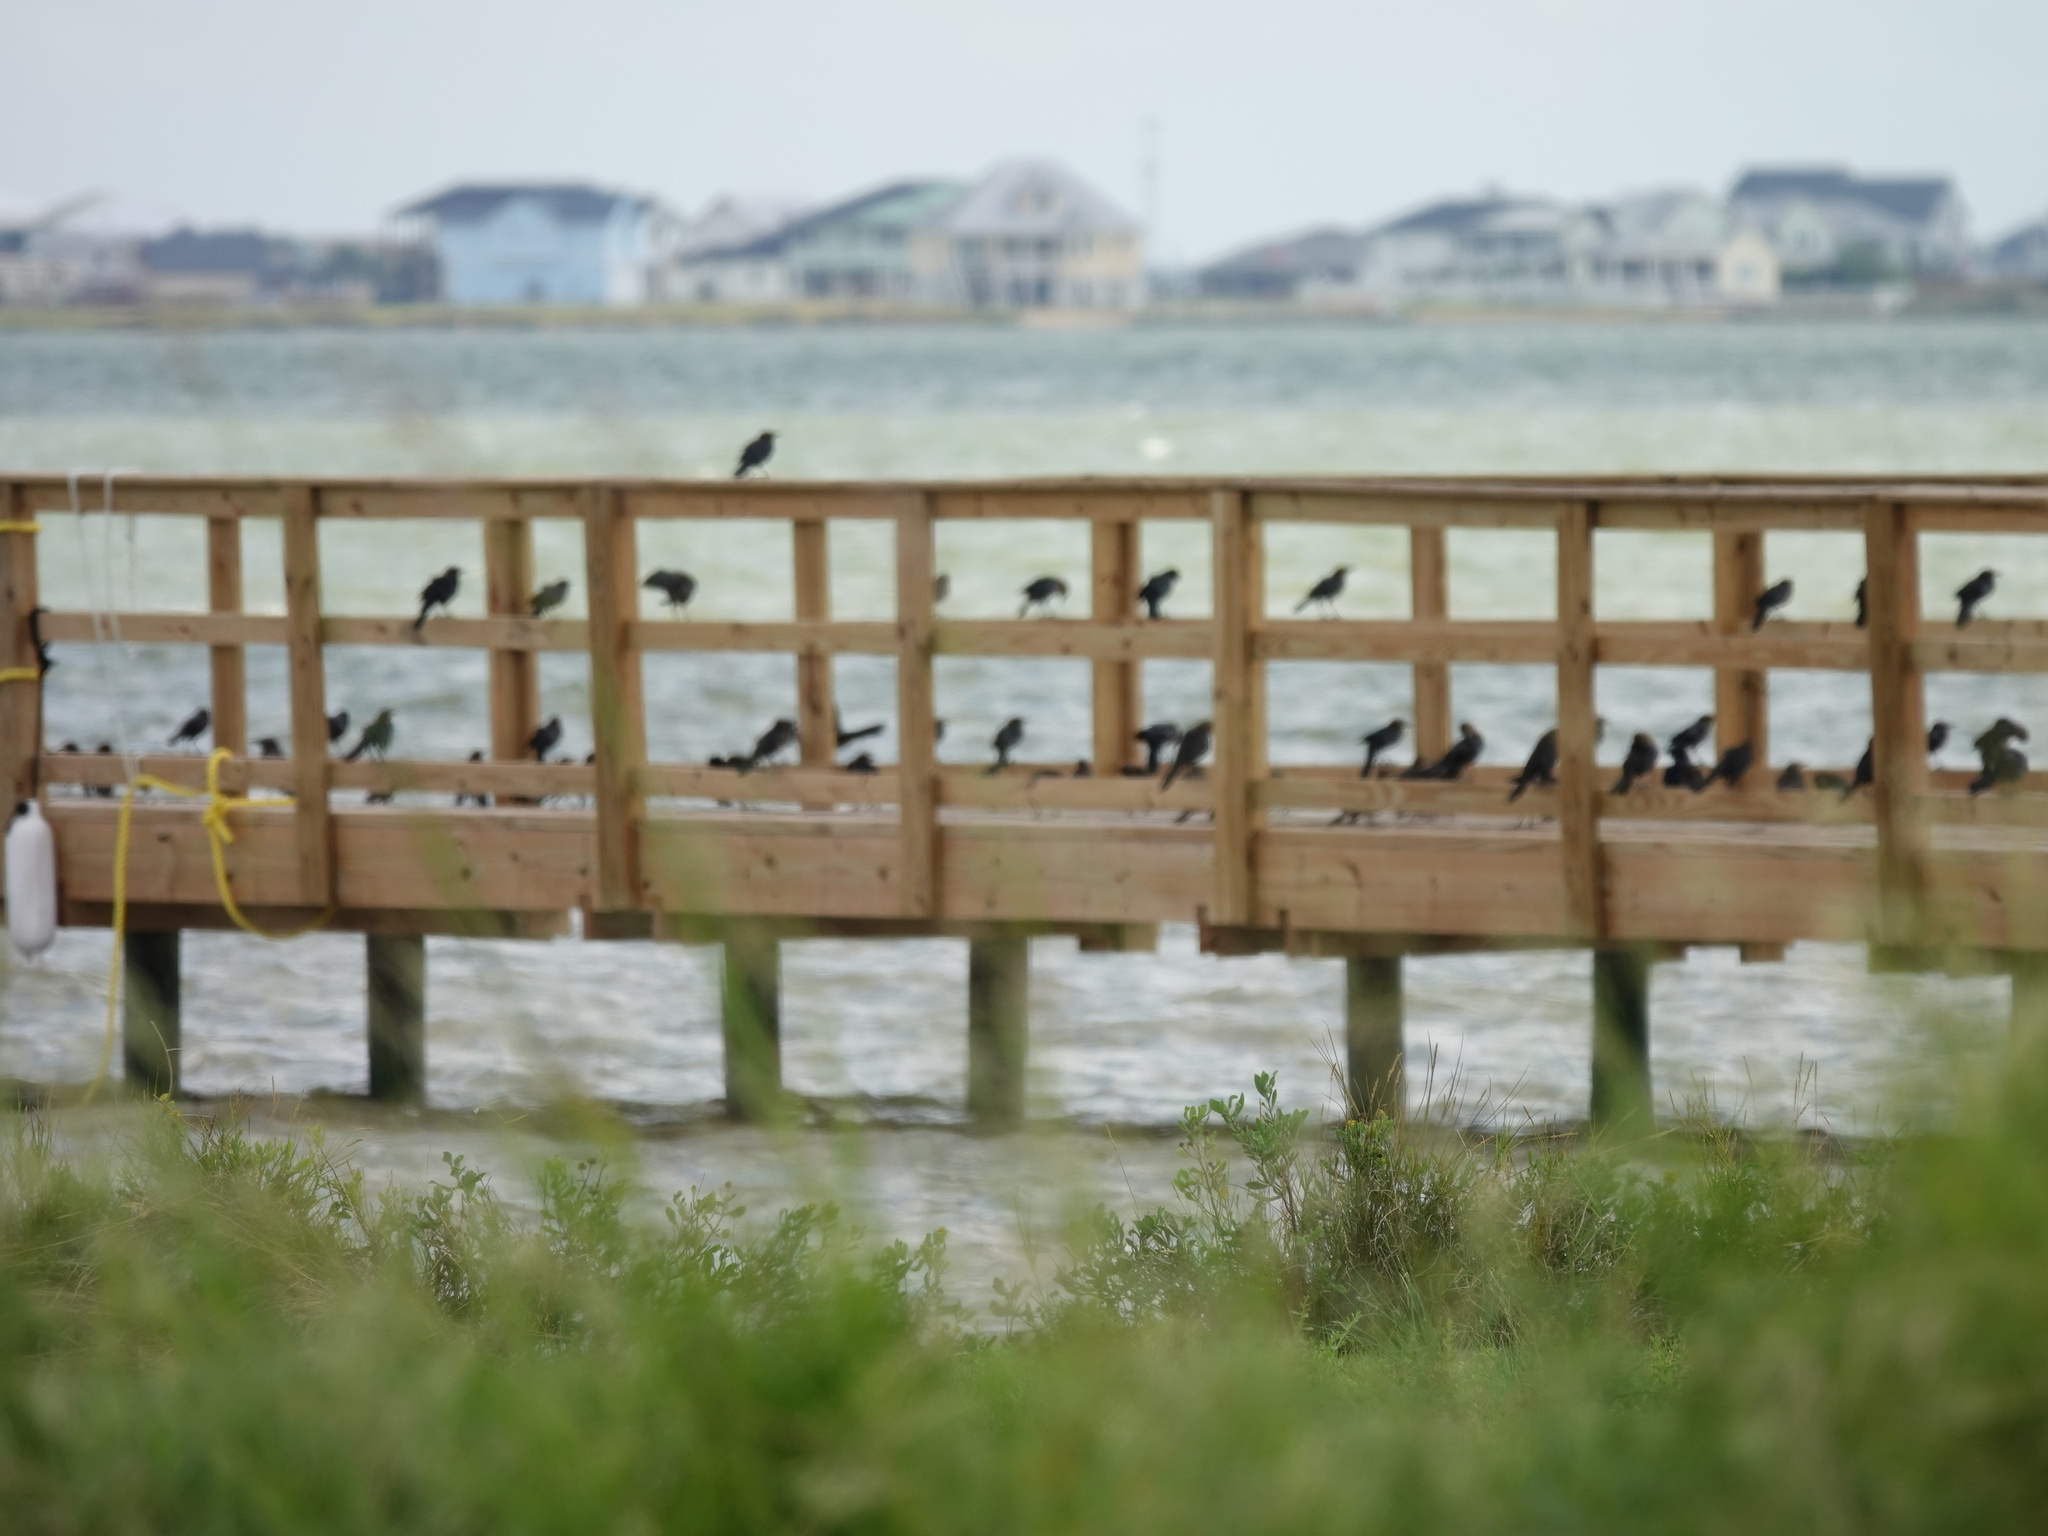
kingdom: Animalia
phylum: Chordata
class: Aves
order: Passeriformes
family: Icteridae
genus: Quiscalus
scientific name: Quiscalus mexicanus
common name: Great-tailed grackle
